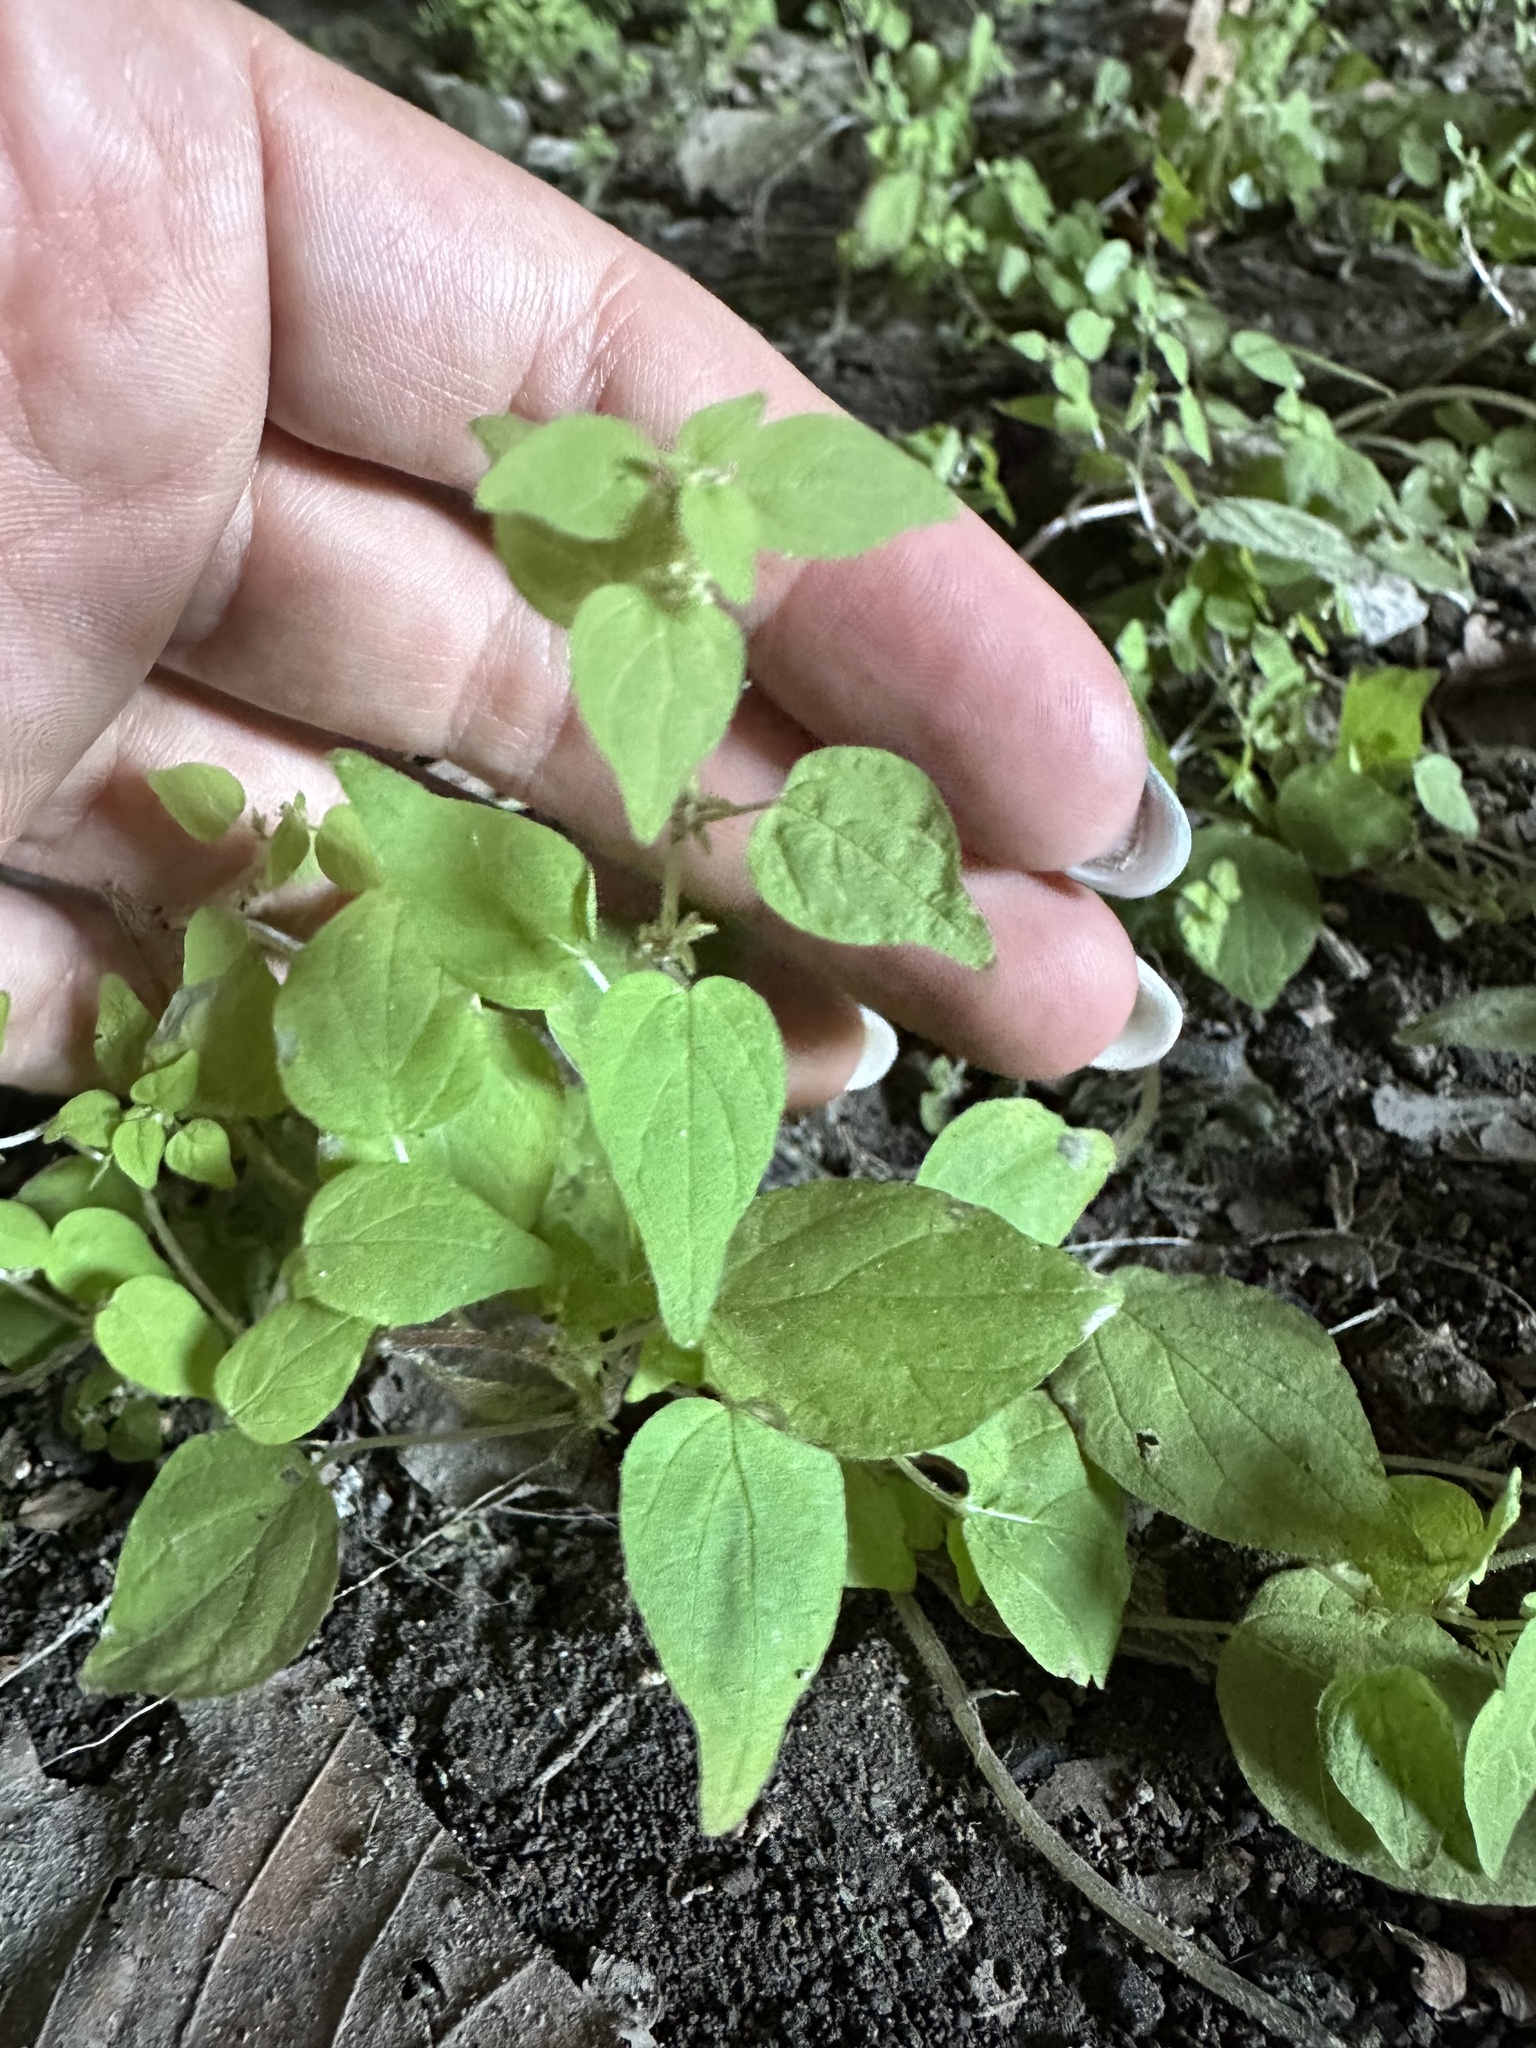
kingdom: Plantae
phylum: Tracheophyta
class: Magnoliopsida
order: Rosales
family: Urticaceae
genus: Parietaria
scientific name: Parietaria debilis
